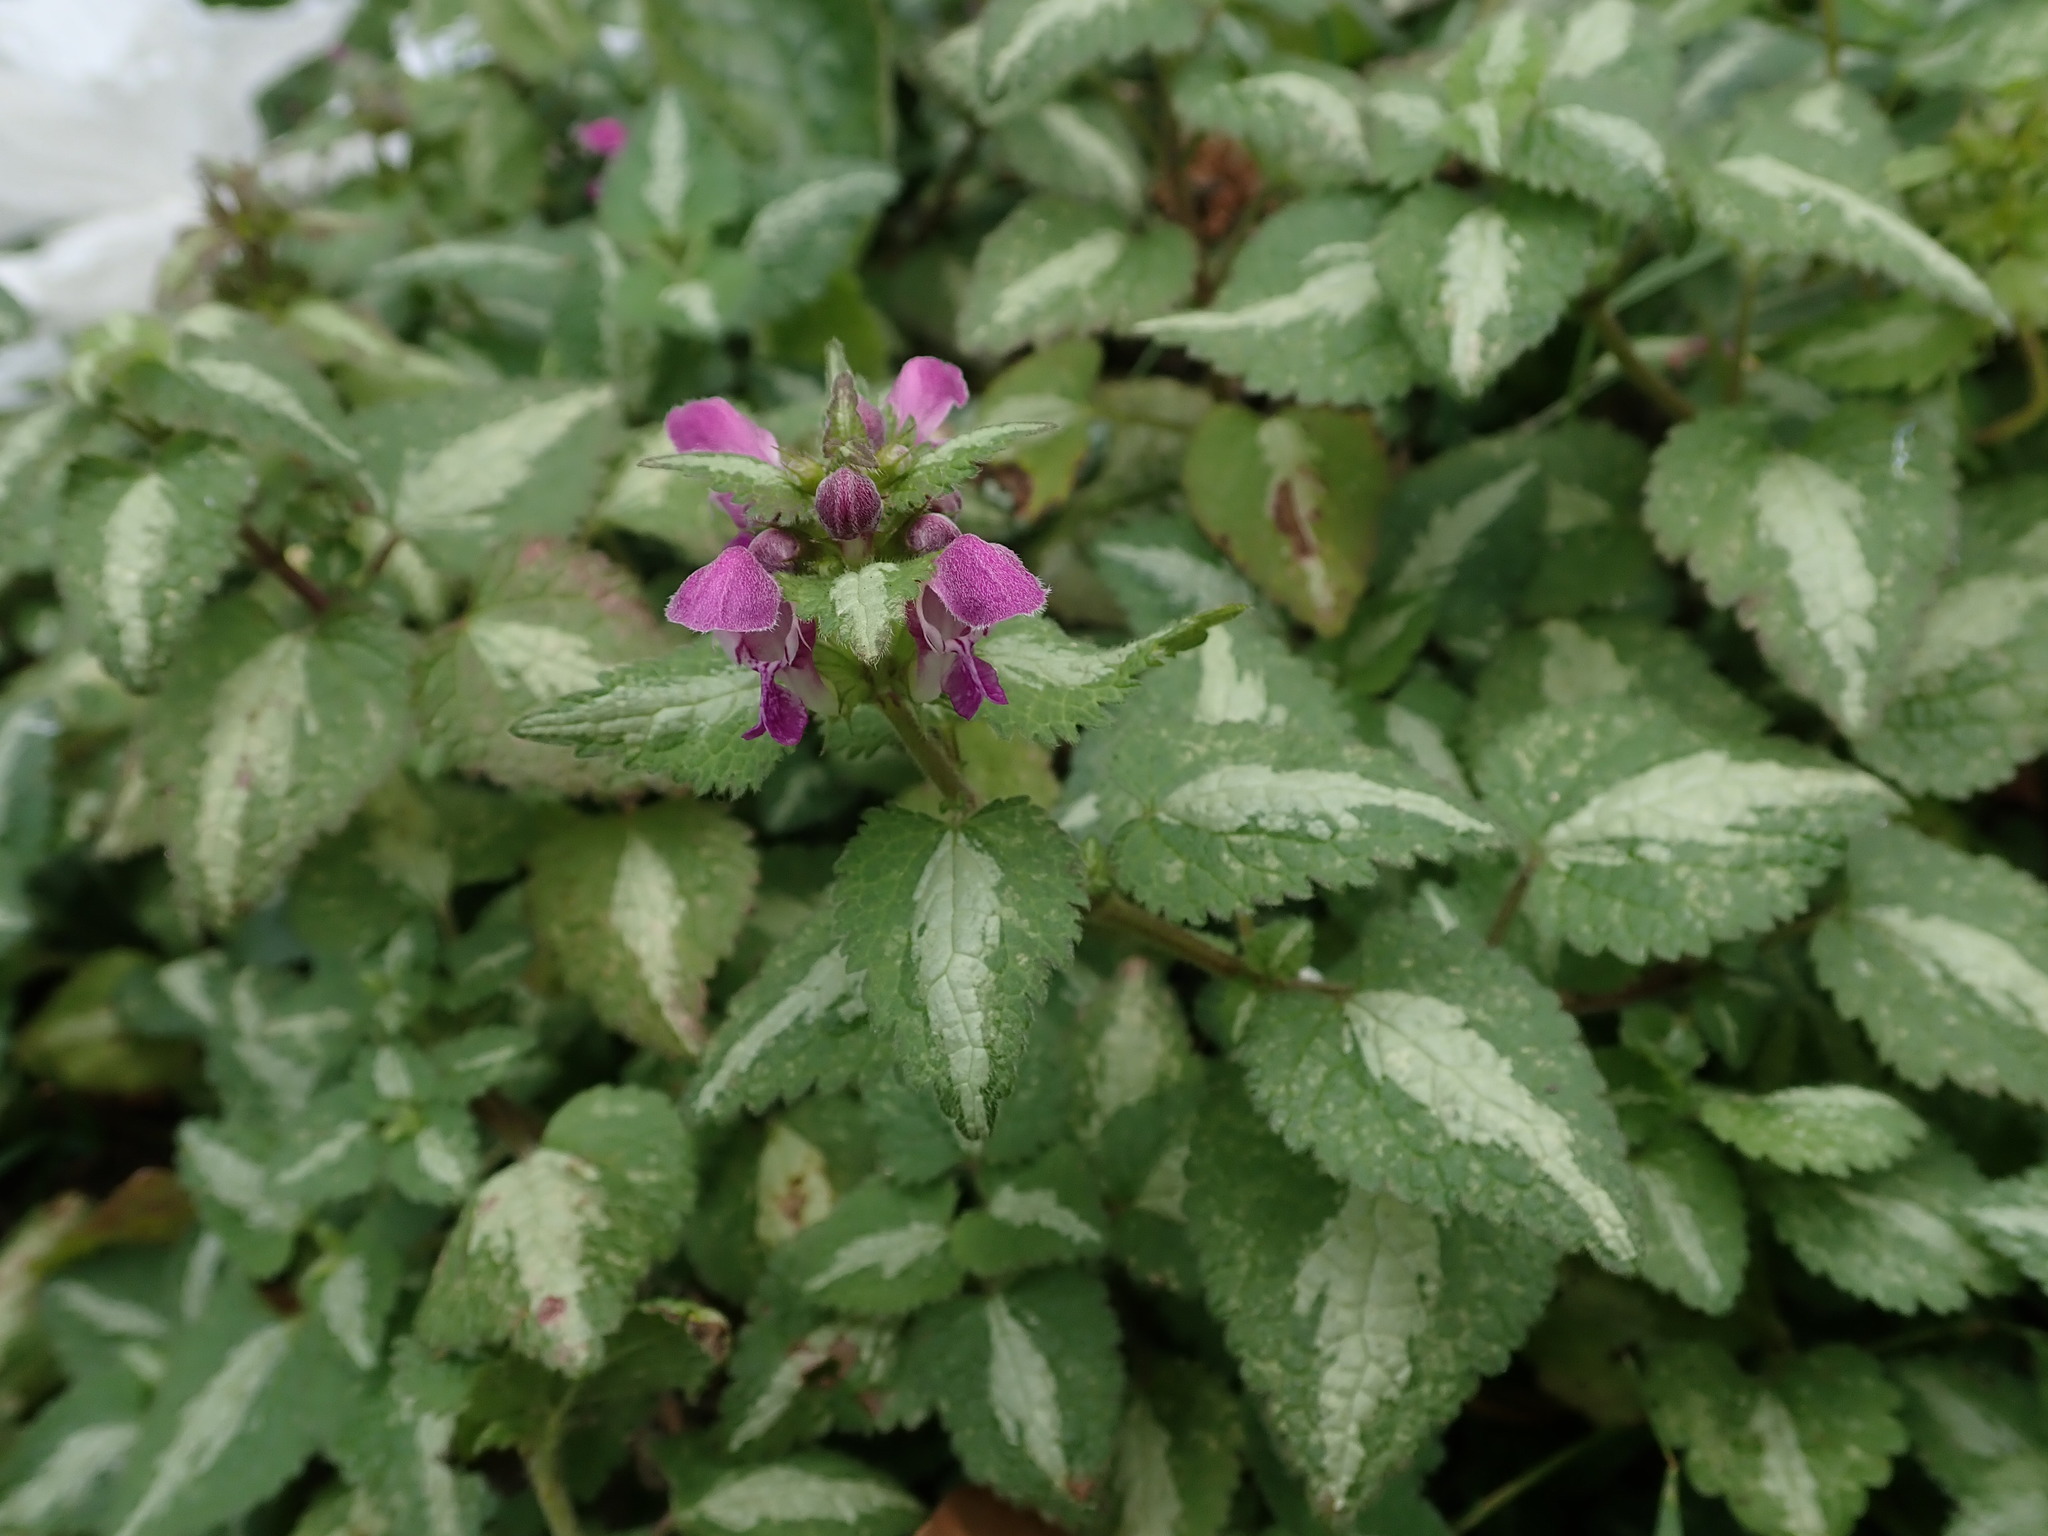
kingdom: Plantae
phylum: Tracheophyta
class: Magnoliopsida
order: Lamiales
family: Lamiaceae
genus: Lamium
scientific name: Lamium maculatum
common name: Spotted dead-nettle
